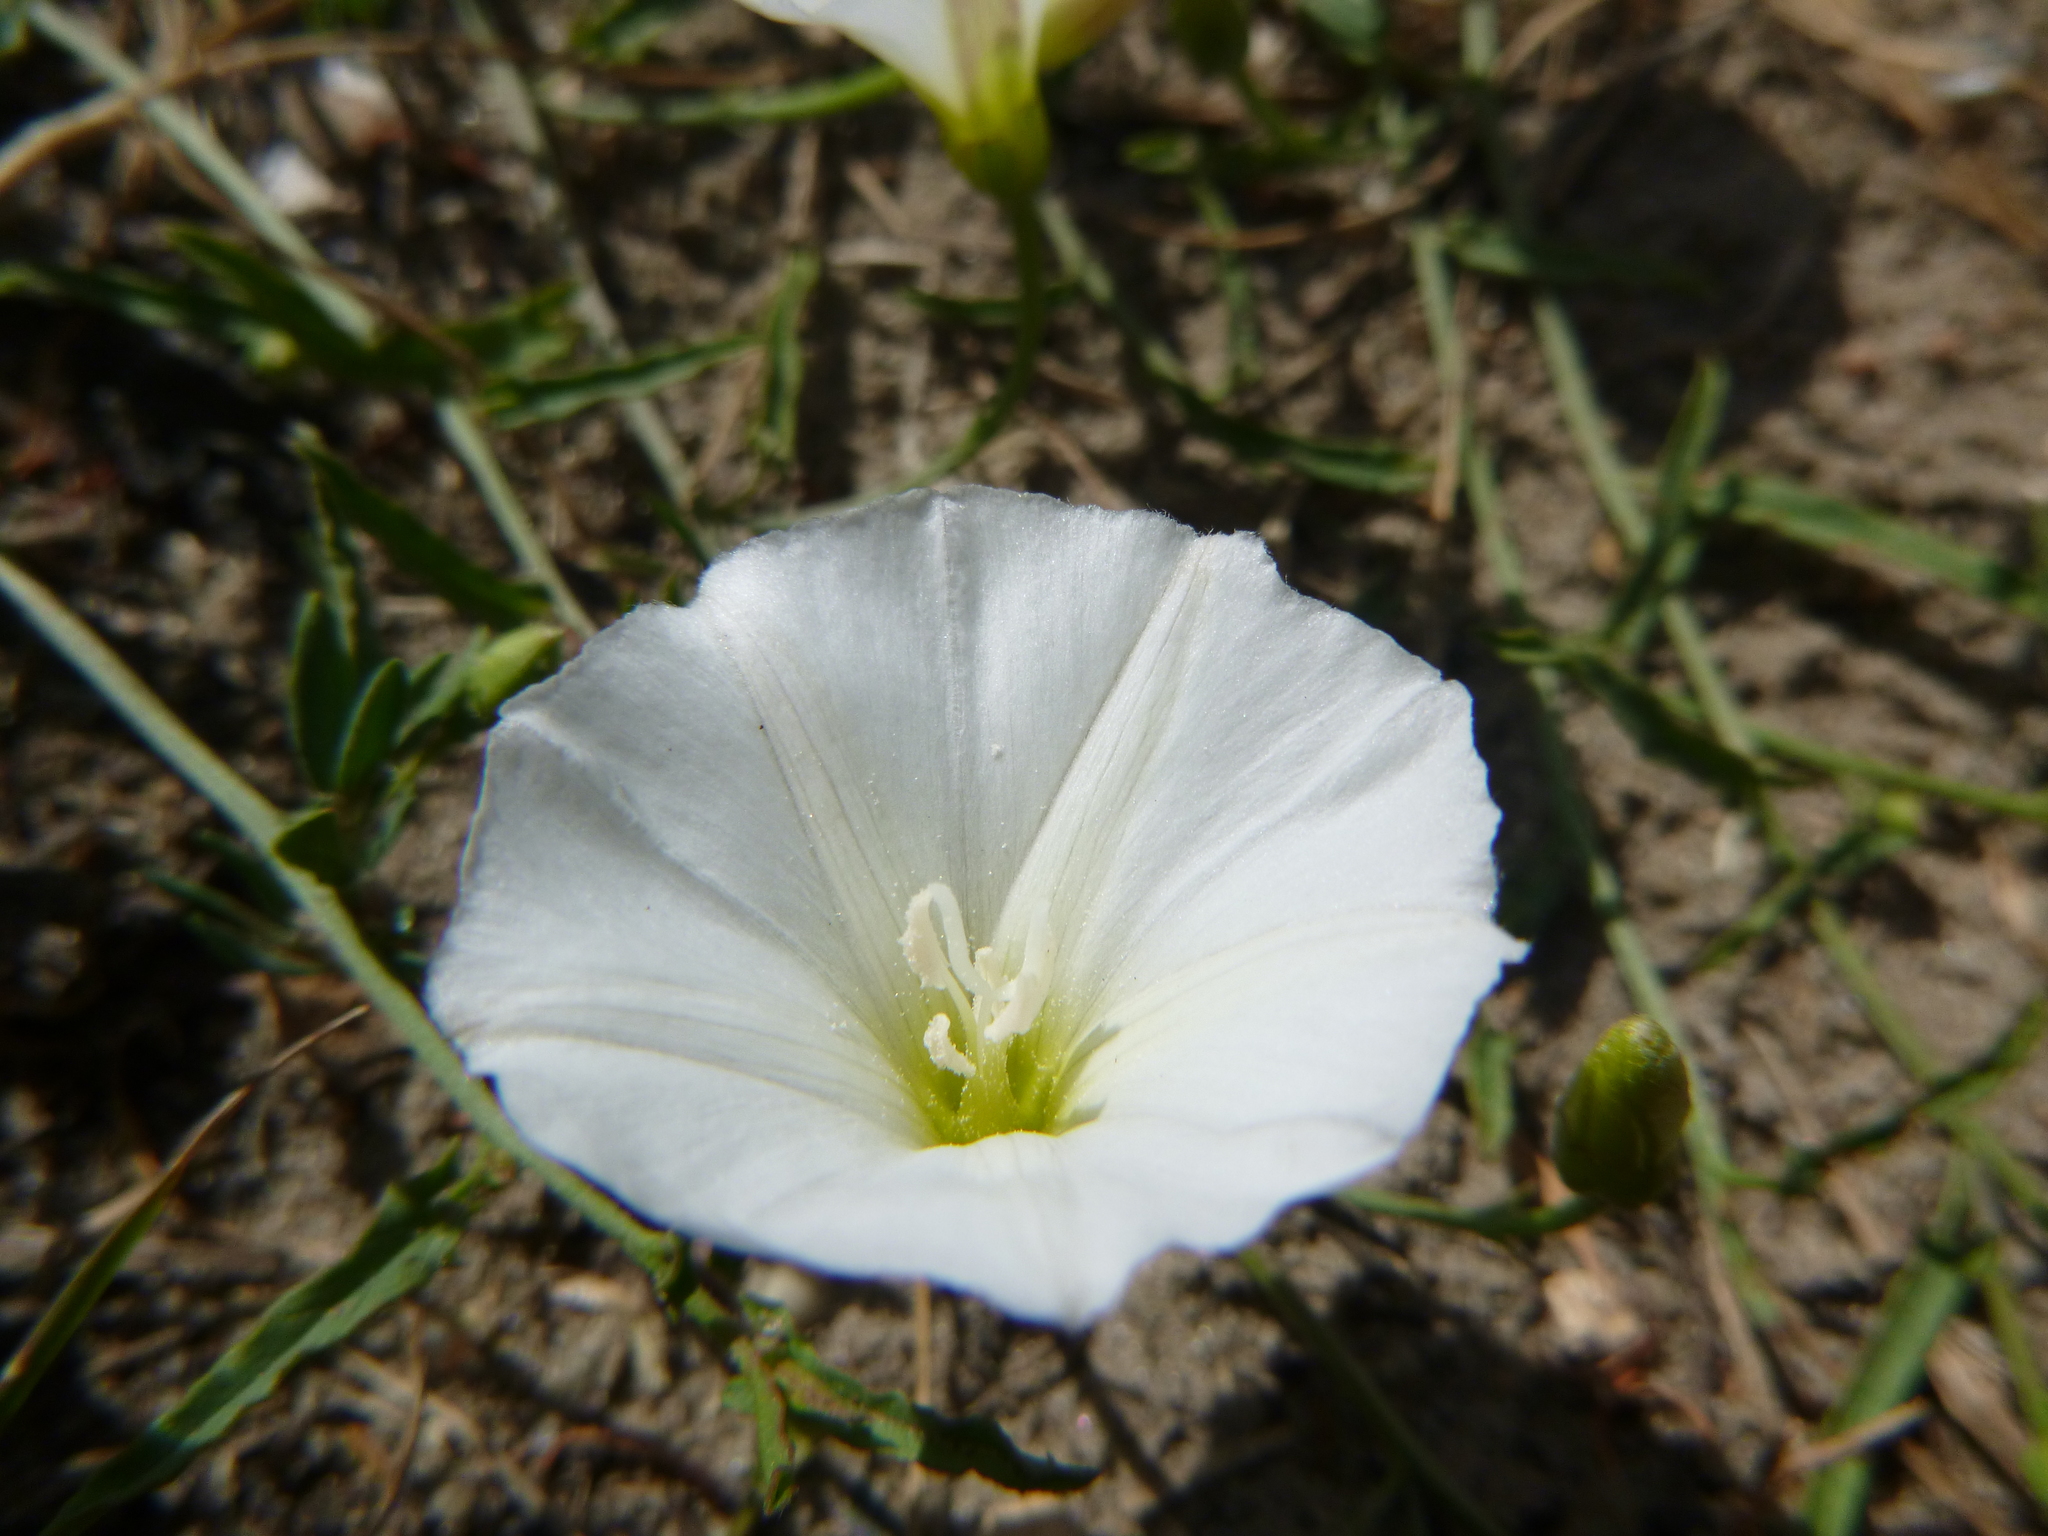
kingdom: Plantae
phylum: Tracheophyta
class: Magnoliopsida
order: Solanales
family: Convolvulaceae
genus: Convolvulus
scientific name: Convolvulus arvensis
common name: Field bindweed
